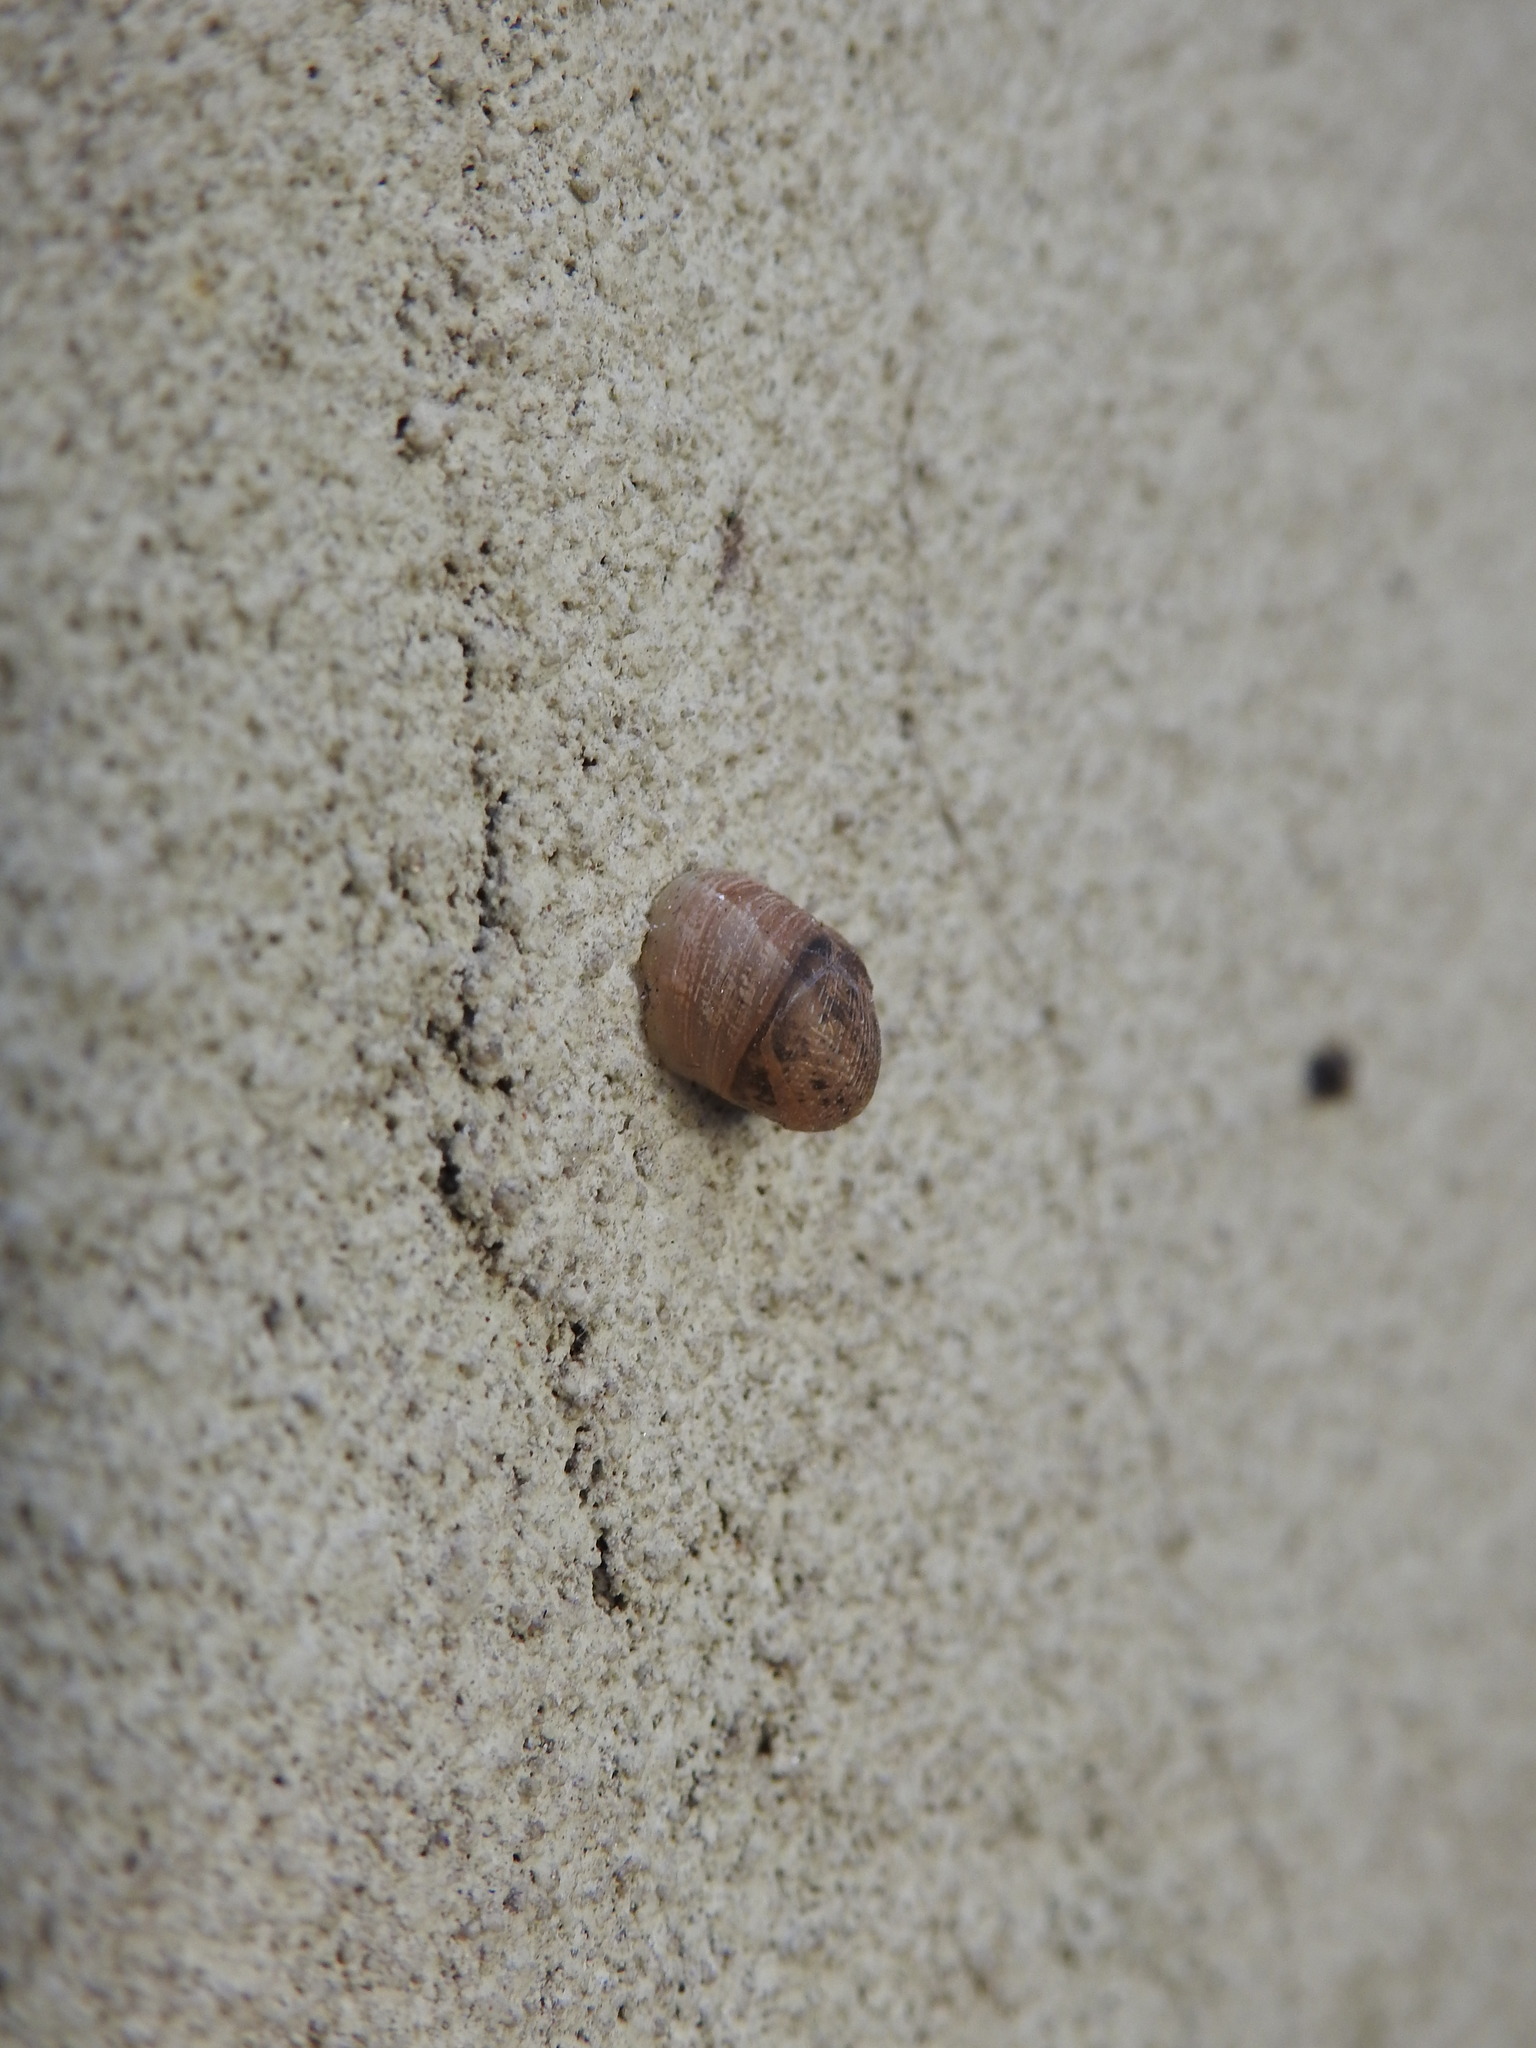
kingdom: Animalia
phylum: Mollusca
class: Gastropoda
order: Stylommatophora
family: Helicidae
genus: Cornu
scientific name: Cornu aspersum
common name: Brown garden snail
